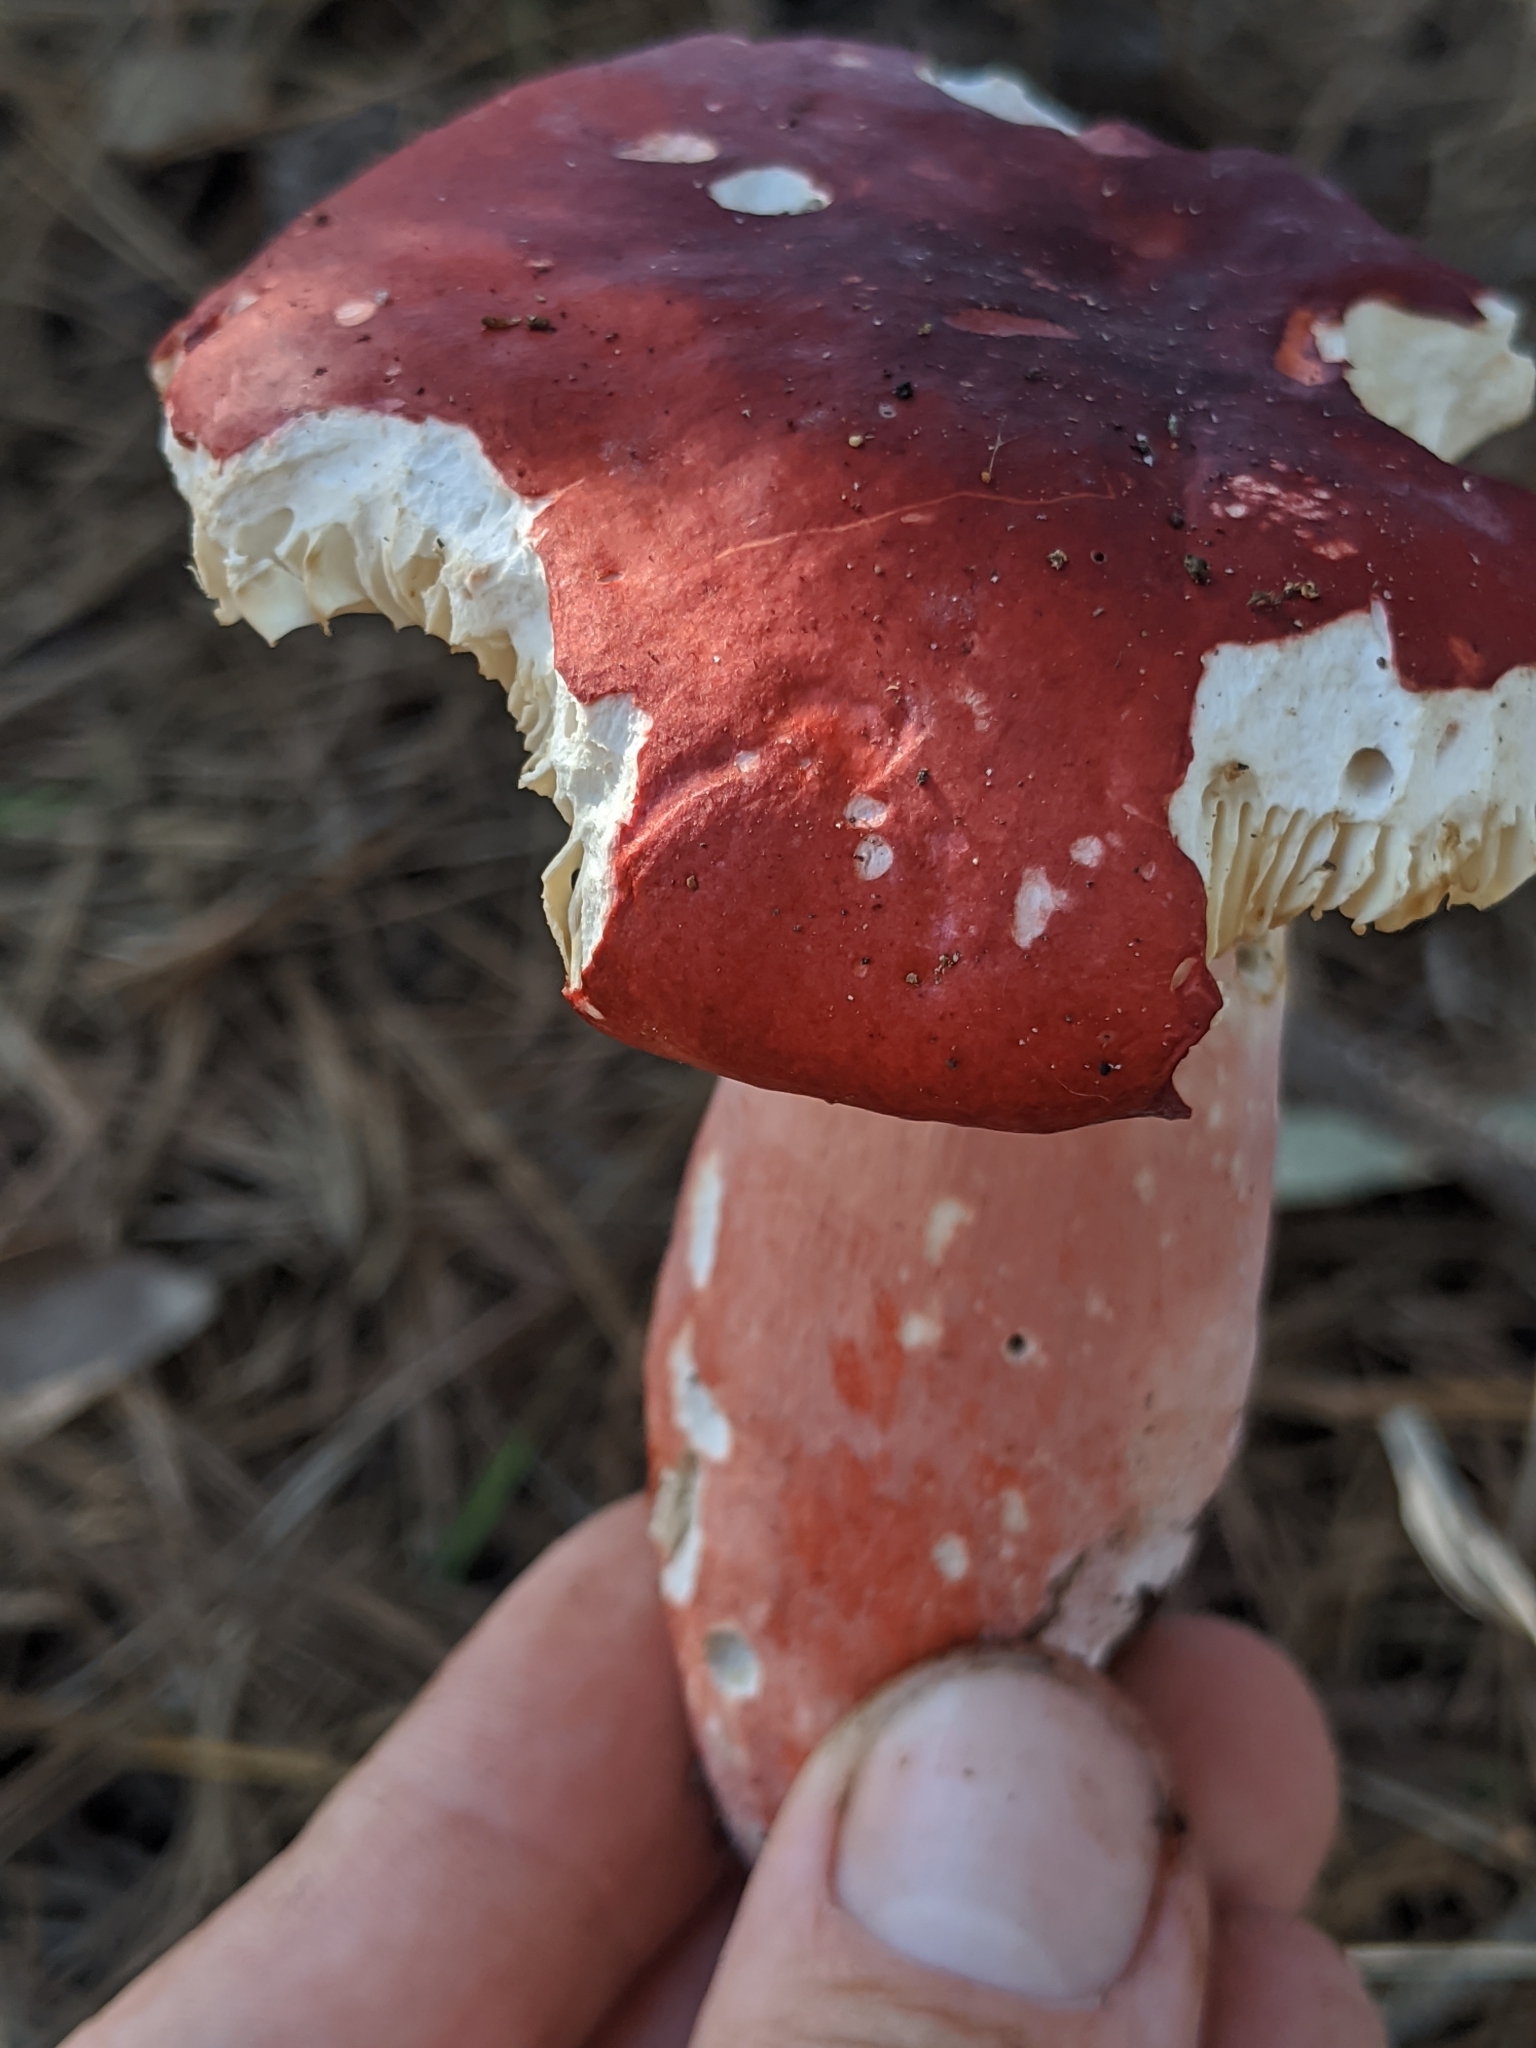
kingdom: Fungi
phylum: Basidiomycota
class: Agaricomycetes
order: Russulales
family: Russulaceae
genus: Russula
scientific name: Russula rhodocephala
